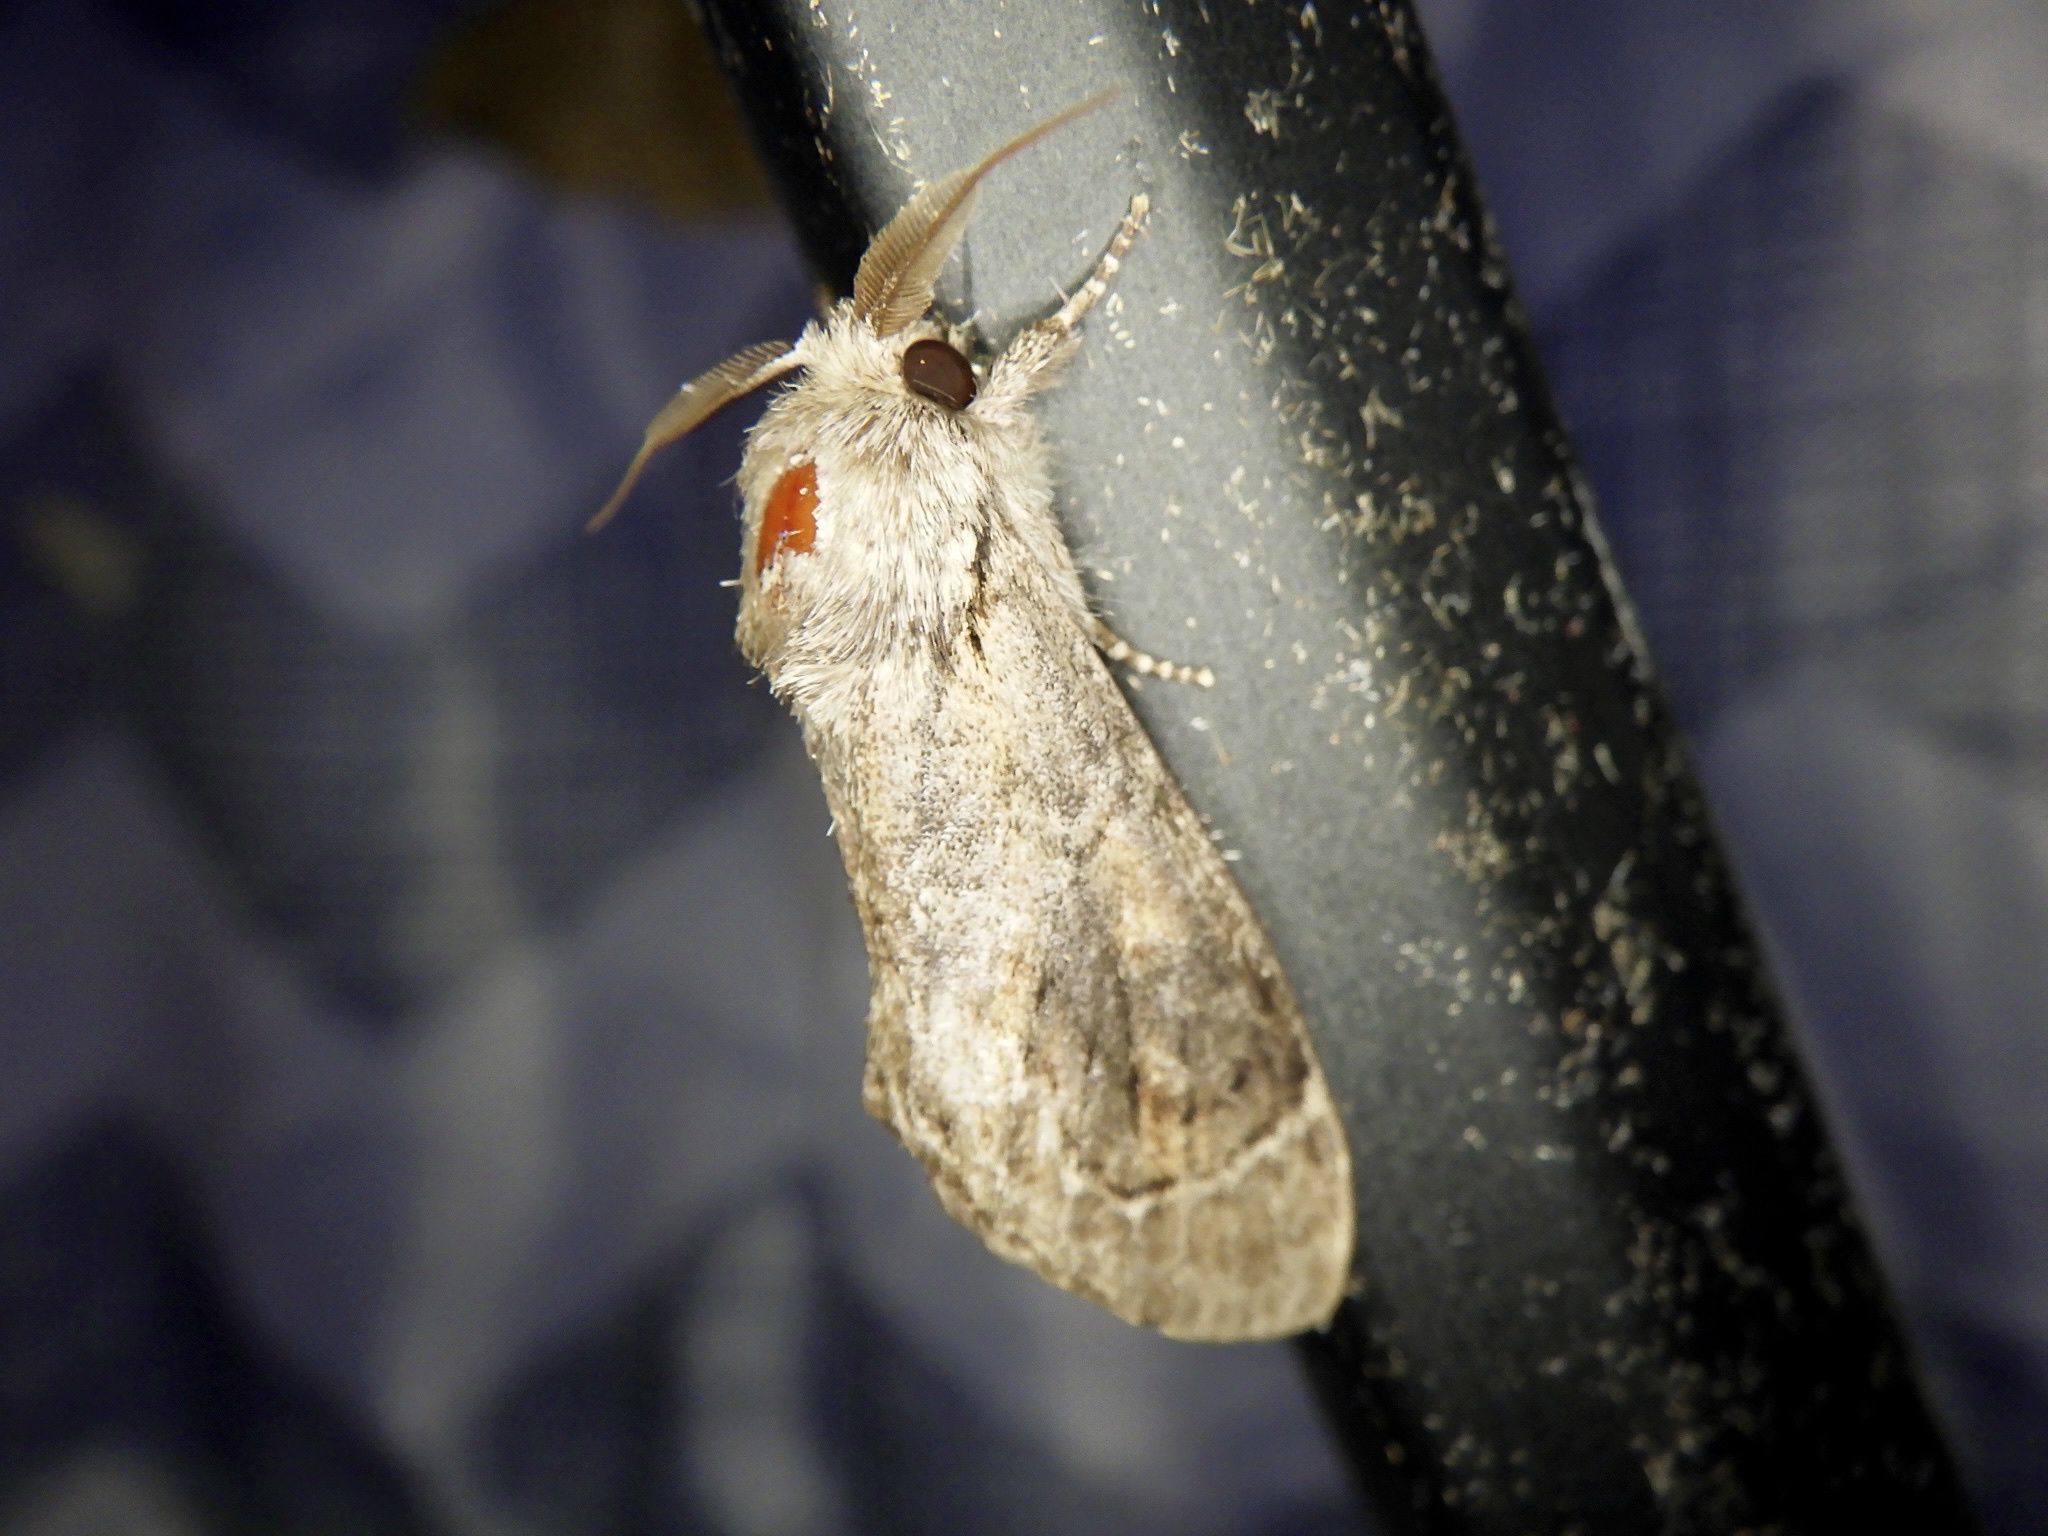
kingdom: Animalia
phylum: Arthropoda
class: Insecta
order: Lepidoptera
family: Notodontidae
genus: Fentonia
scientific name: Fentonia ocypete
